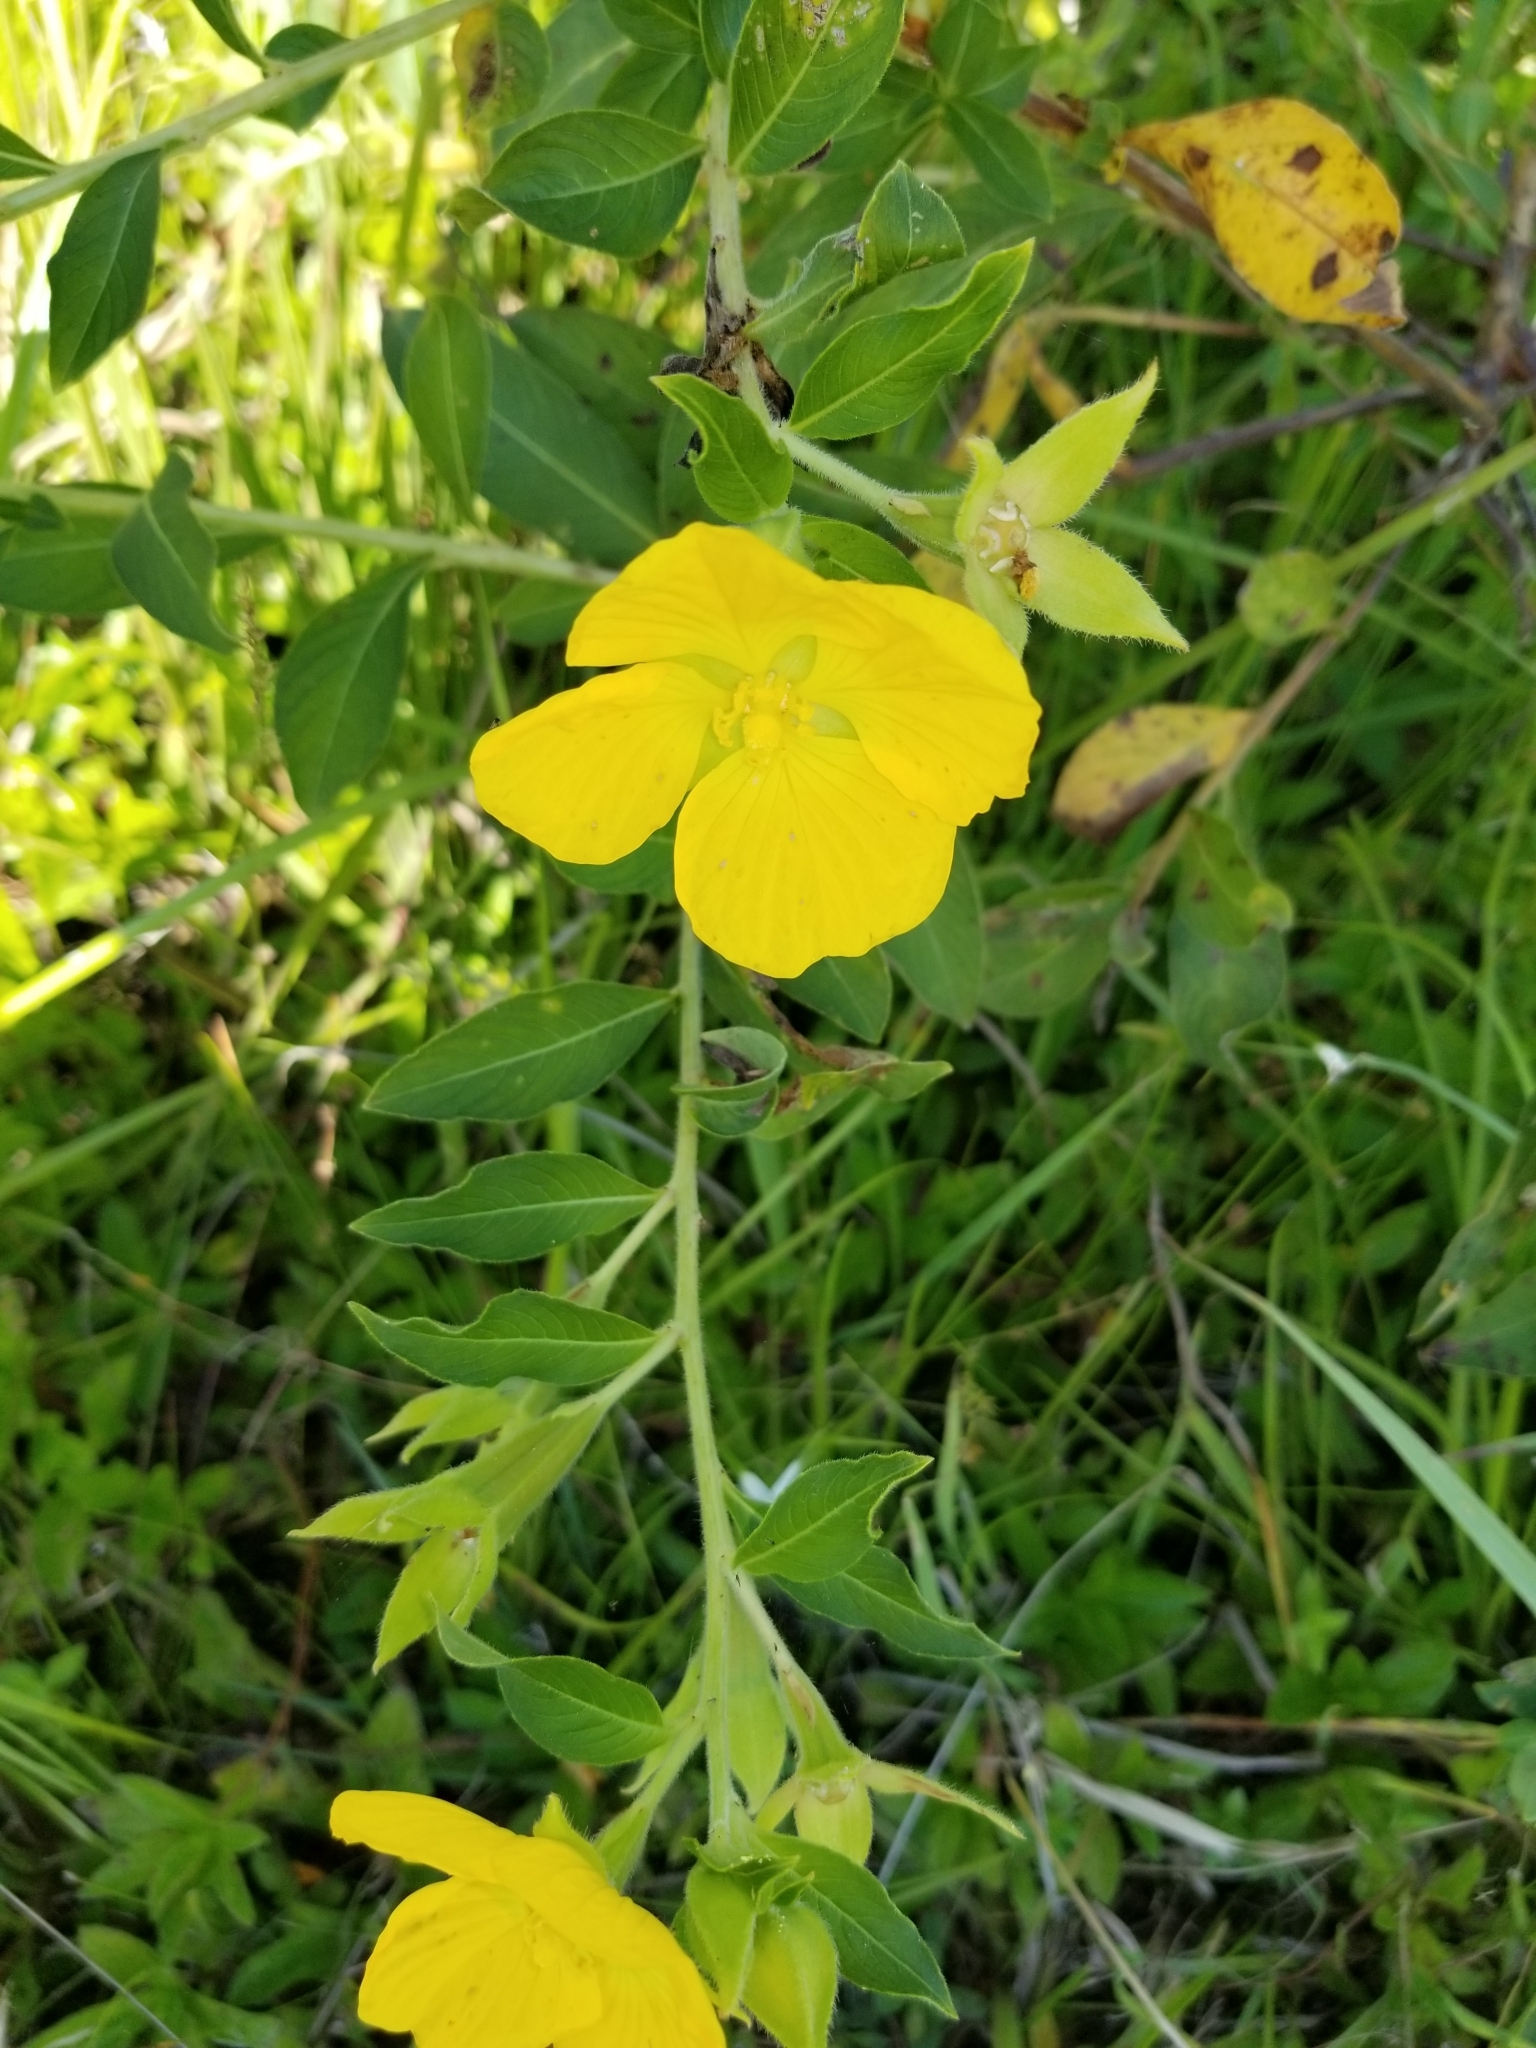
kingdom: Plantae
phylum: Tracheophyta
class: Magnoliopsida
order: Myrtales
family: Onagraceae
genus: Ludwigia
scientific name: Ludwigia peruviana
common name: Peruvian primrose-willow
